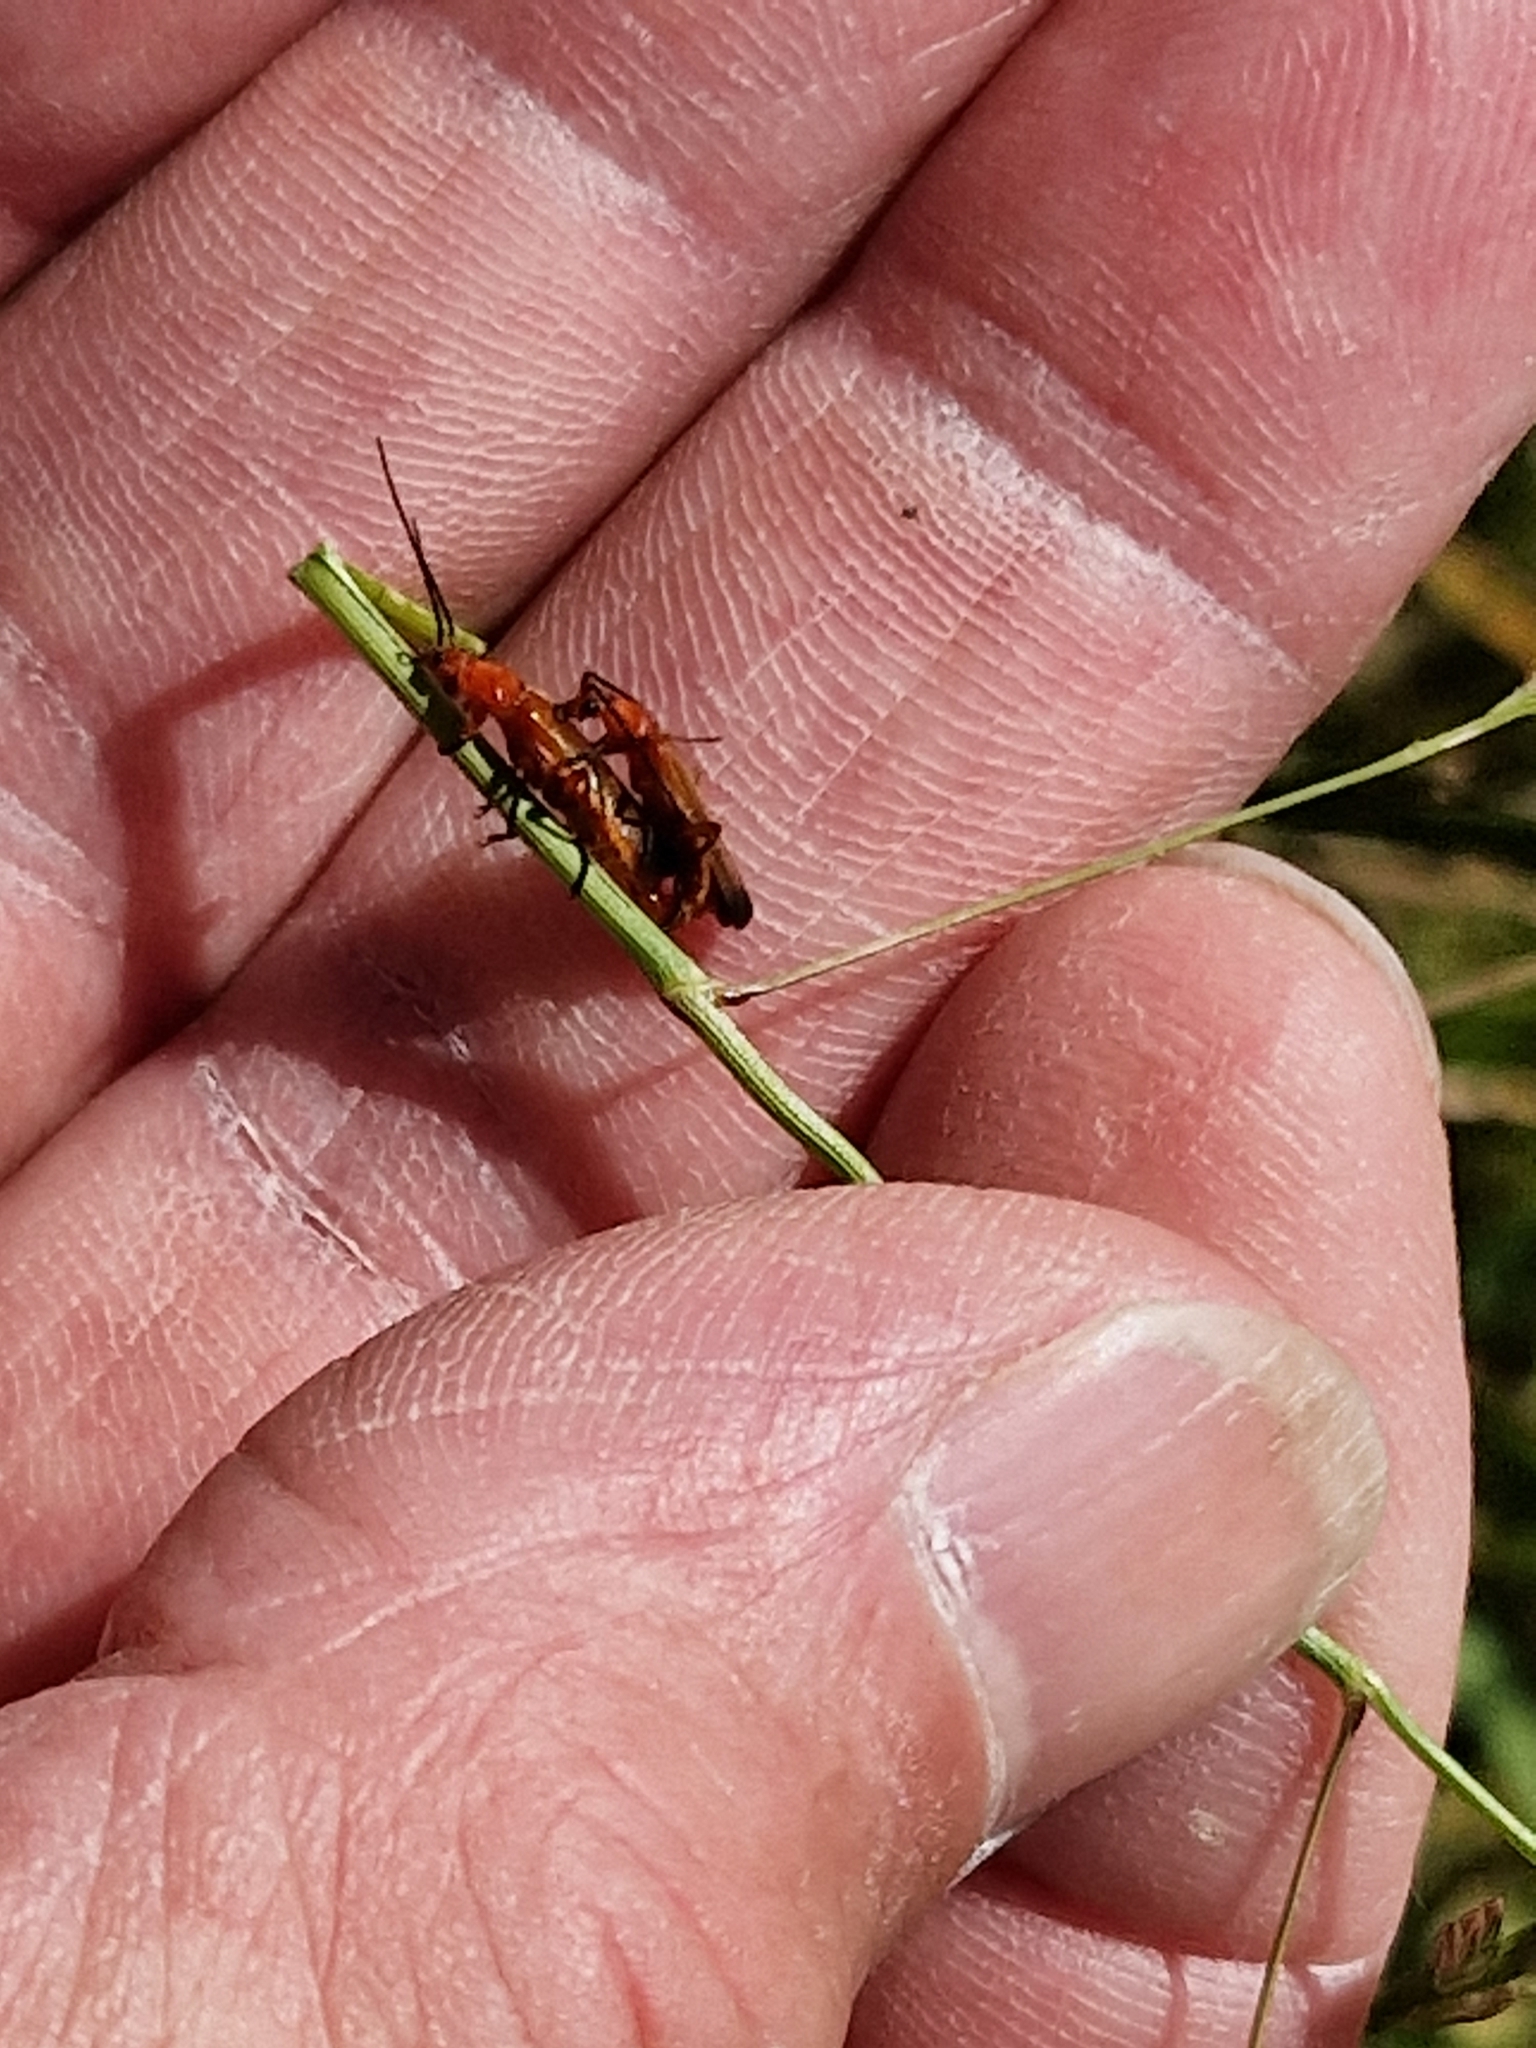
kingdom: Animalia
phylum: Arthropoda
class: Insecta
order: Coleoptera
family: Cantharidae
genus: Rhagonycha
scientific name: Rhagonycha fulva
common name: Common red soldier beetle
